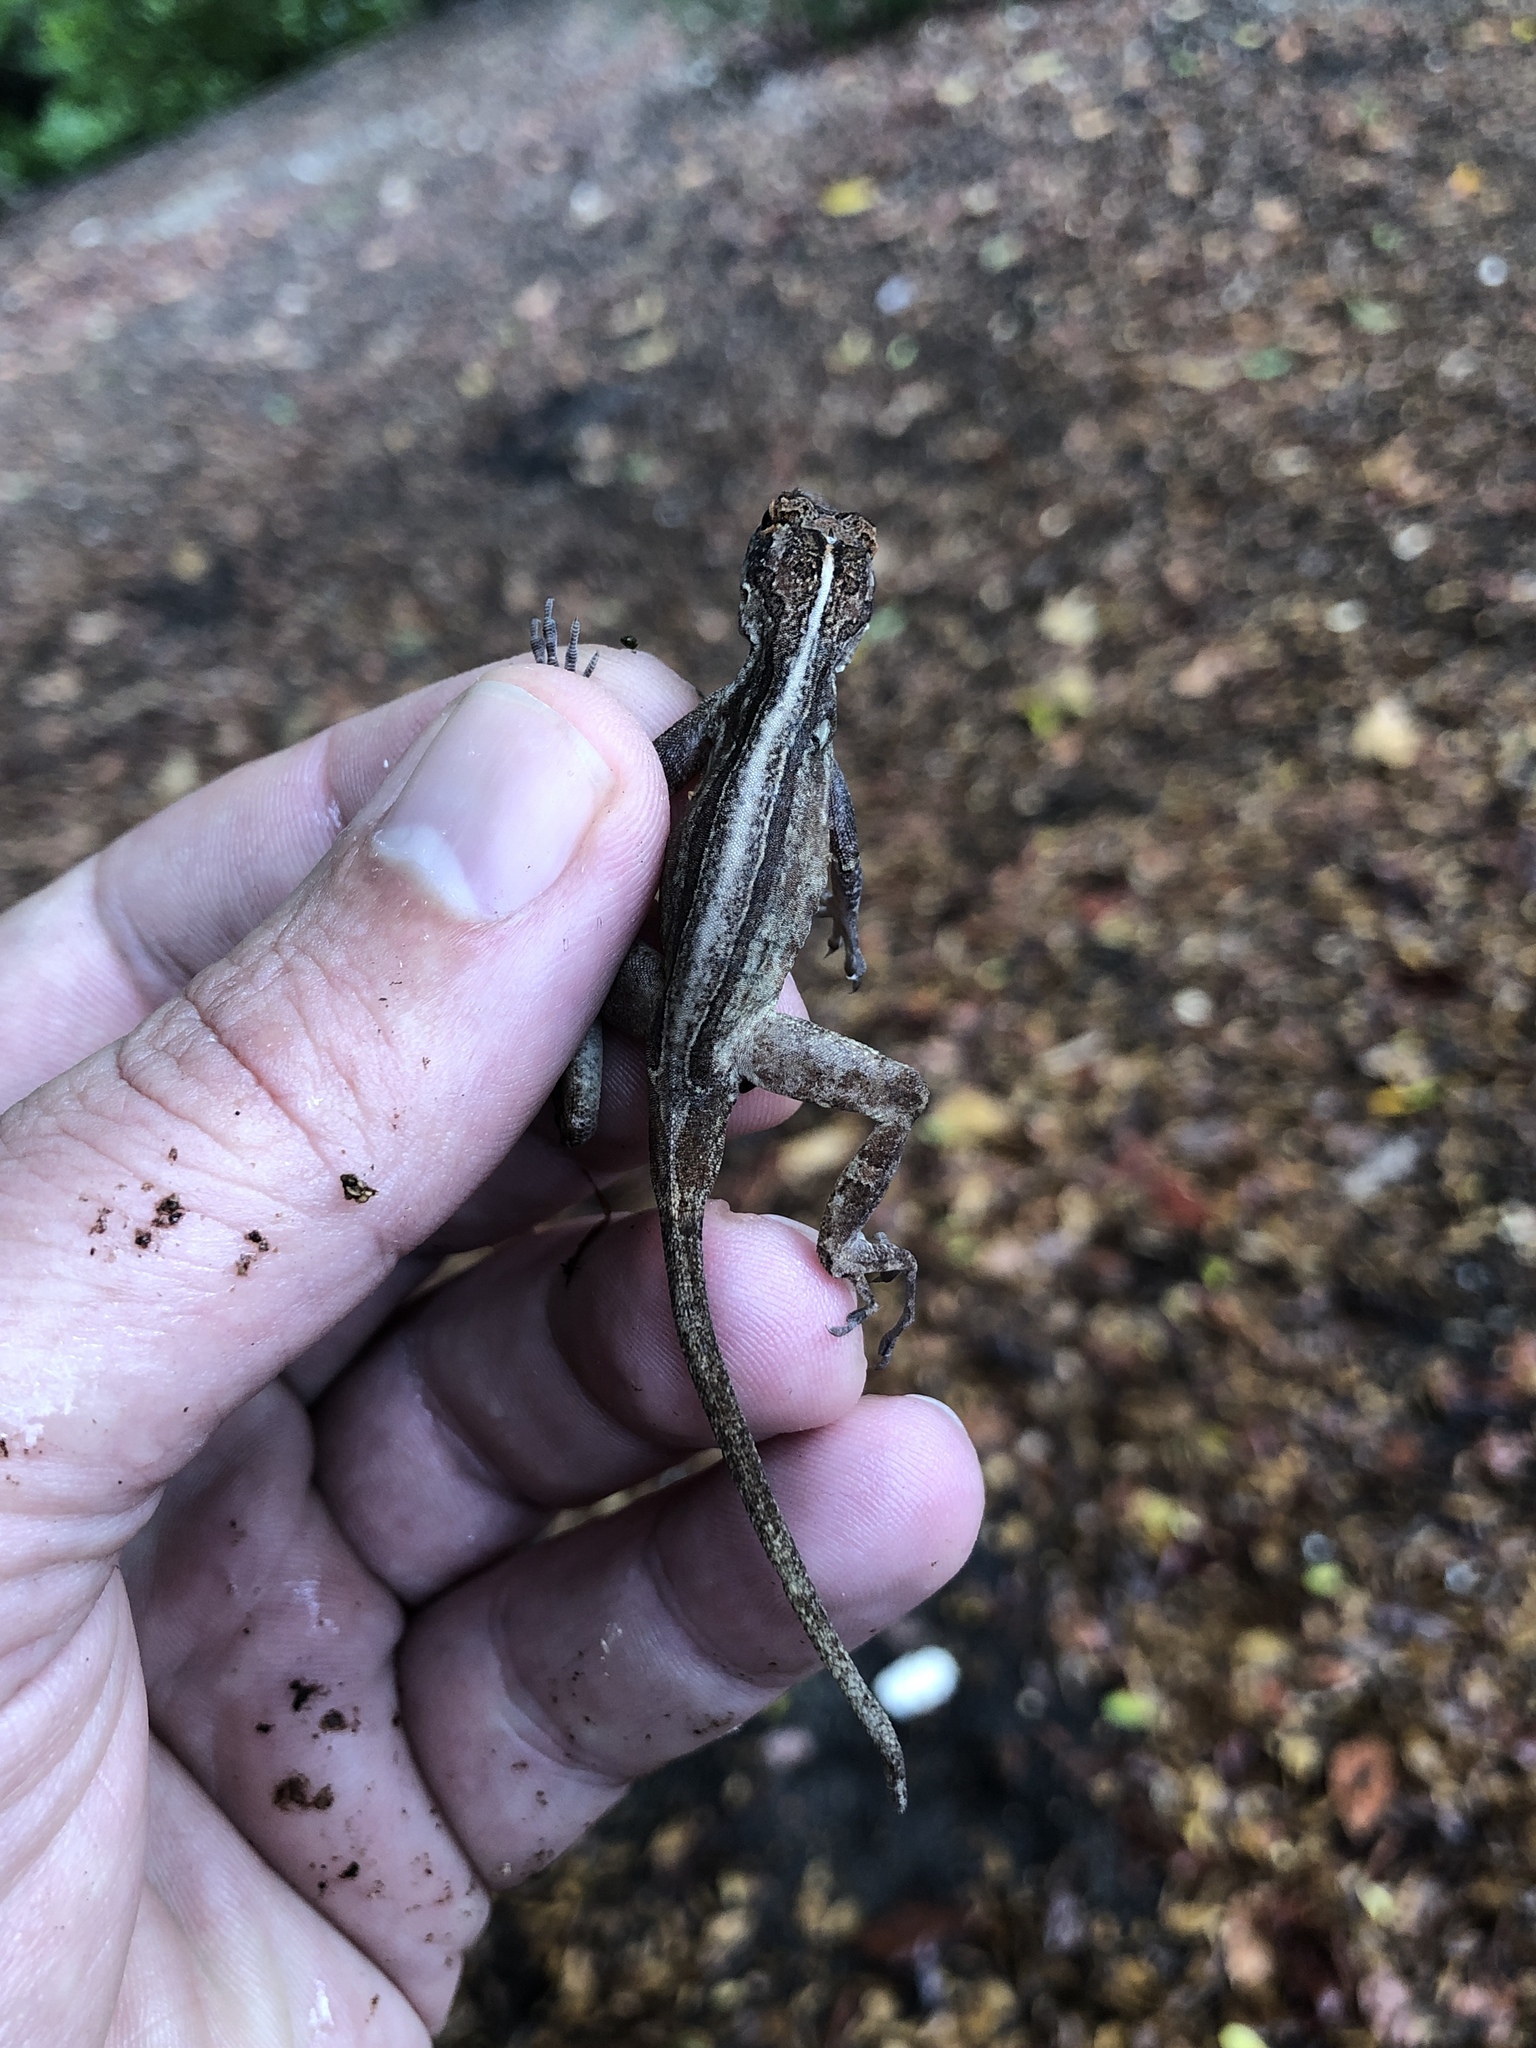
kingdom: Animalia
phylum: Chordata
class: Squamata
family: Dactyloidae
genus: Anolis
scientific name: Anolis cristatellus
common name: Crested anole
